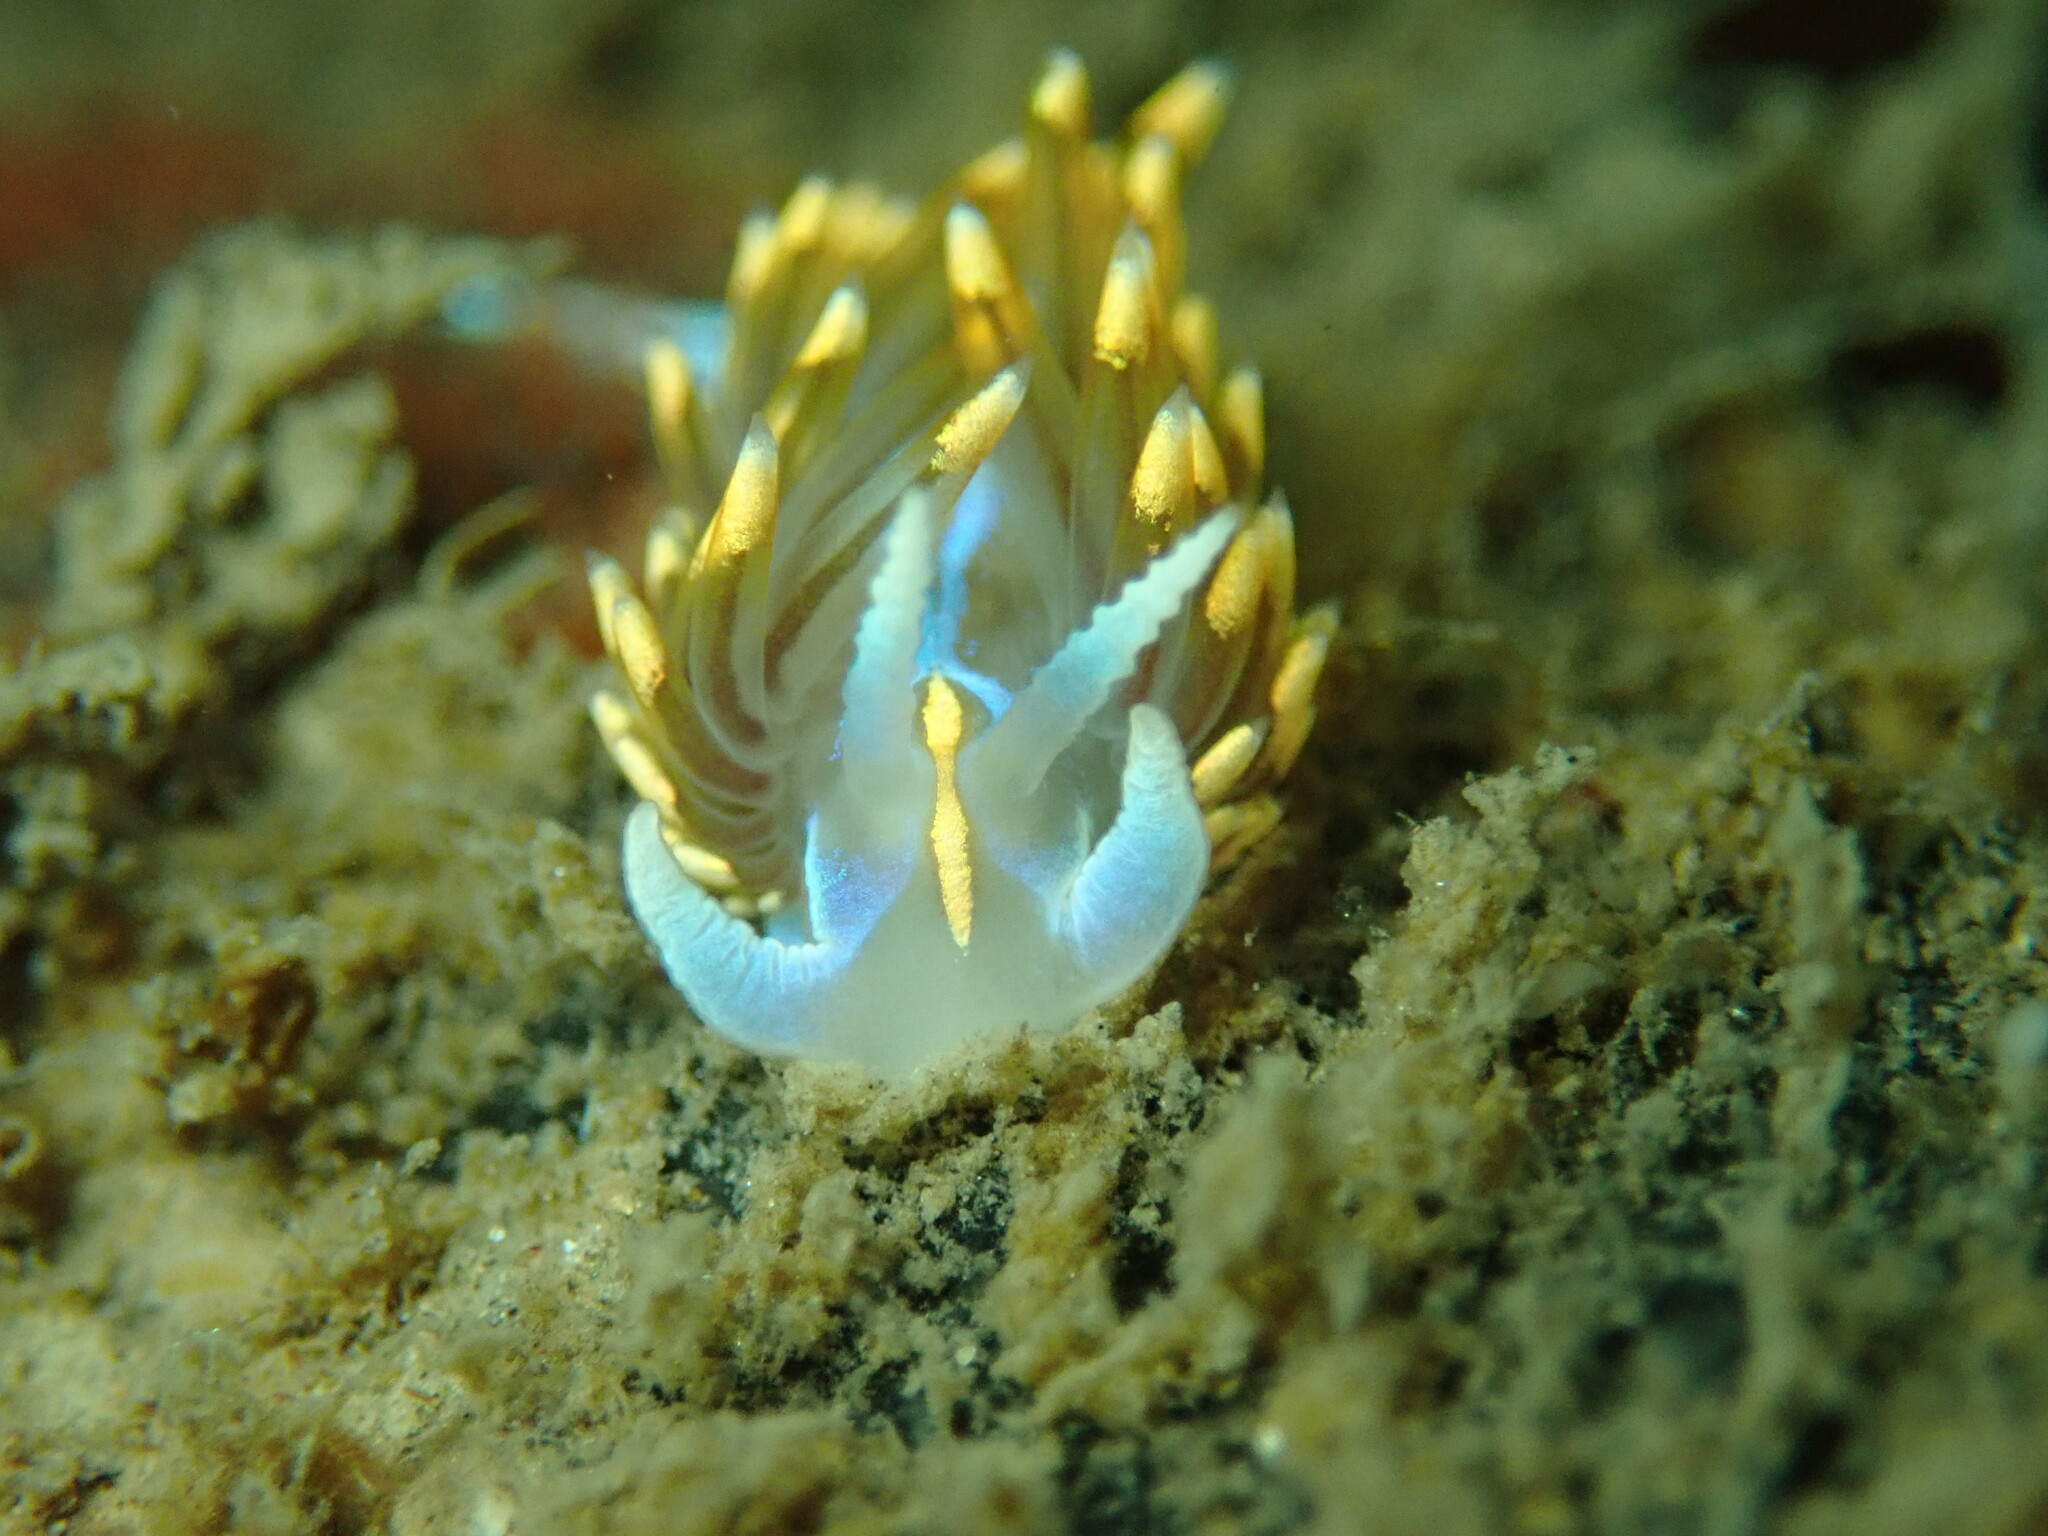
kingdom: Animalia
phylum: Mollusca
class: Gastropoda
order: Nudibranchia
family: Myrrhinidae
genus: Hermissenda
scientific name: Hermissenda opalescens
